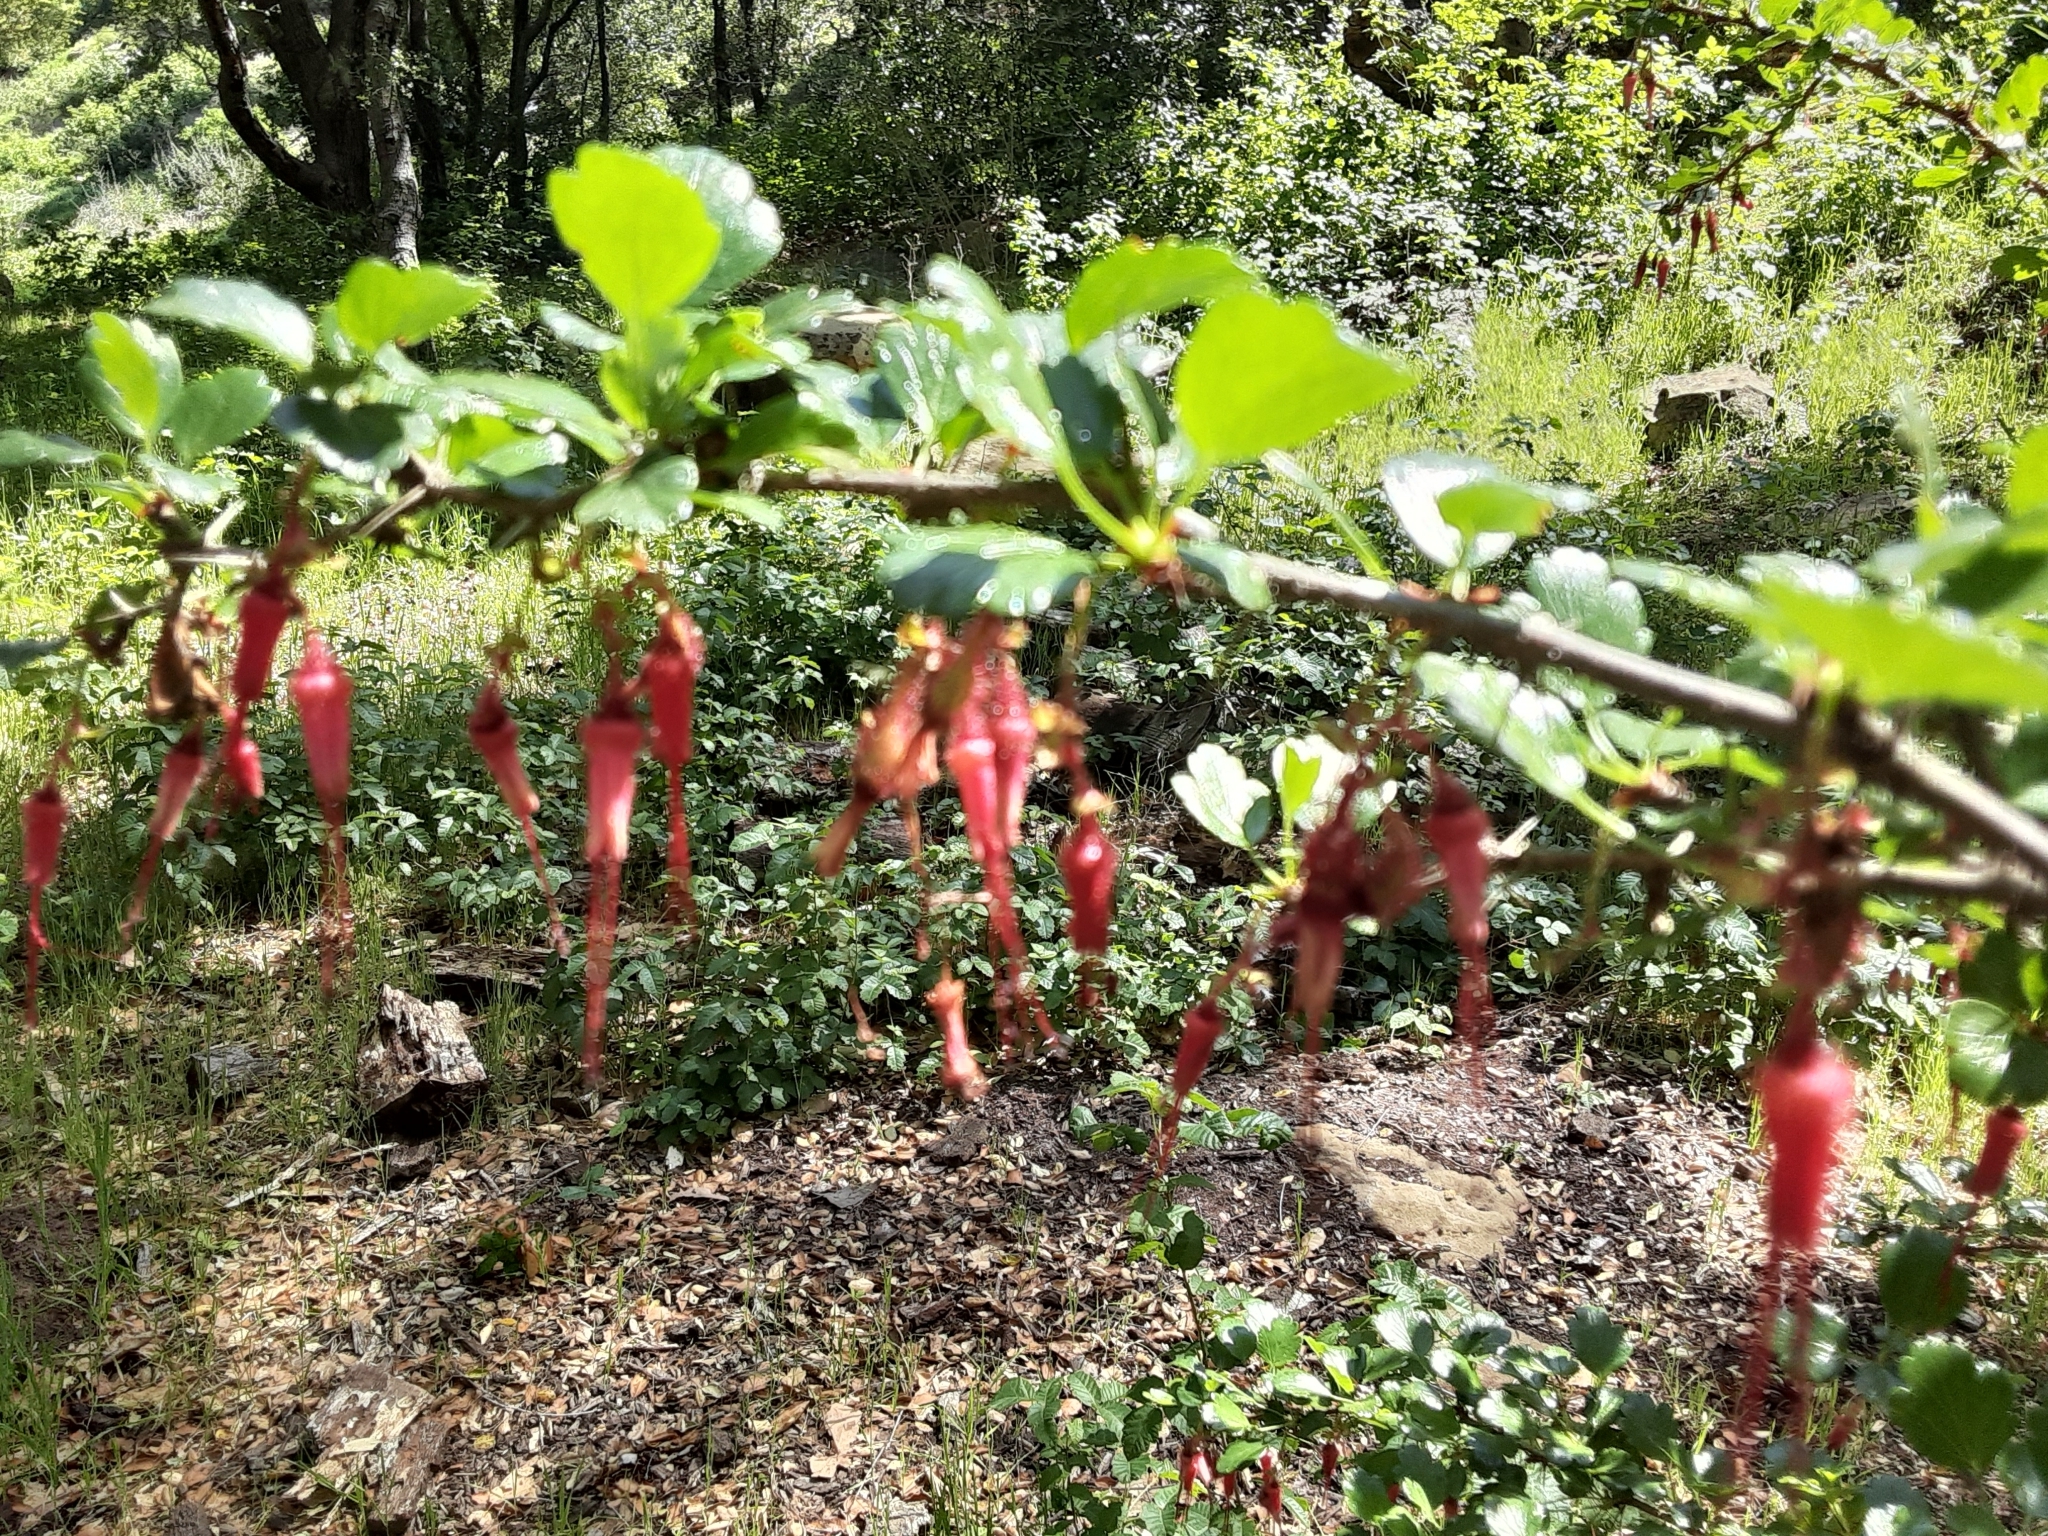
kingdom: Plantae
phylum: Tracheophyta
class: Magnoliopsida
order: Saxifragales
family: Grossulariaceae
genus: Ribes
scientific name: Ribes speciosum
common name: Fuchsia-flower gooseberry
